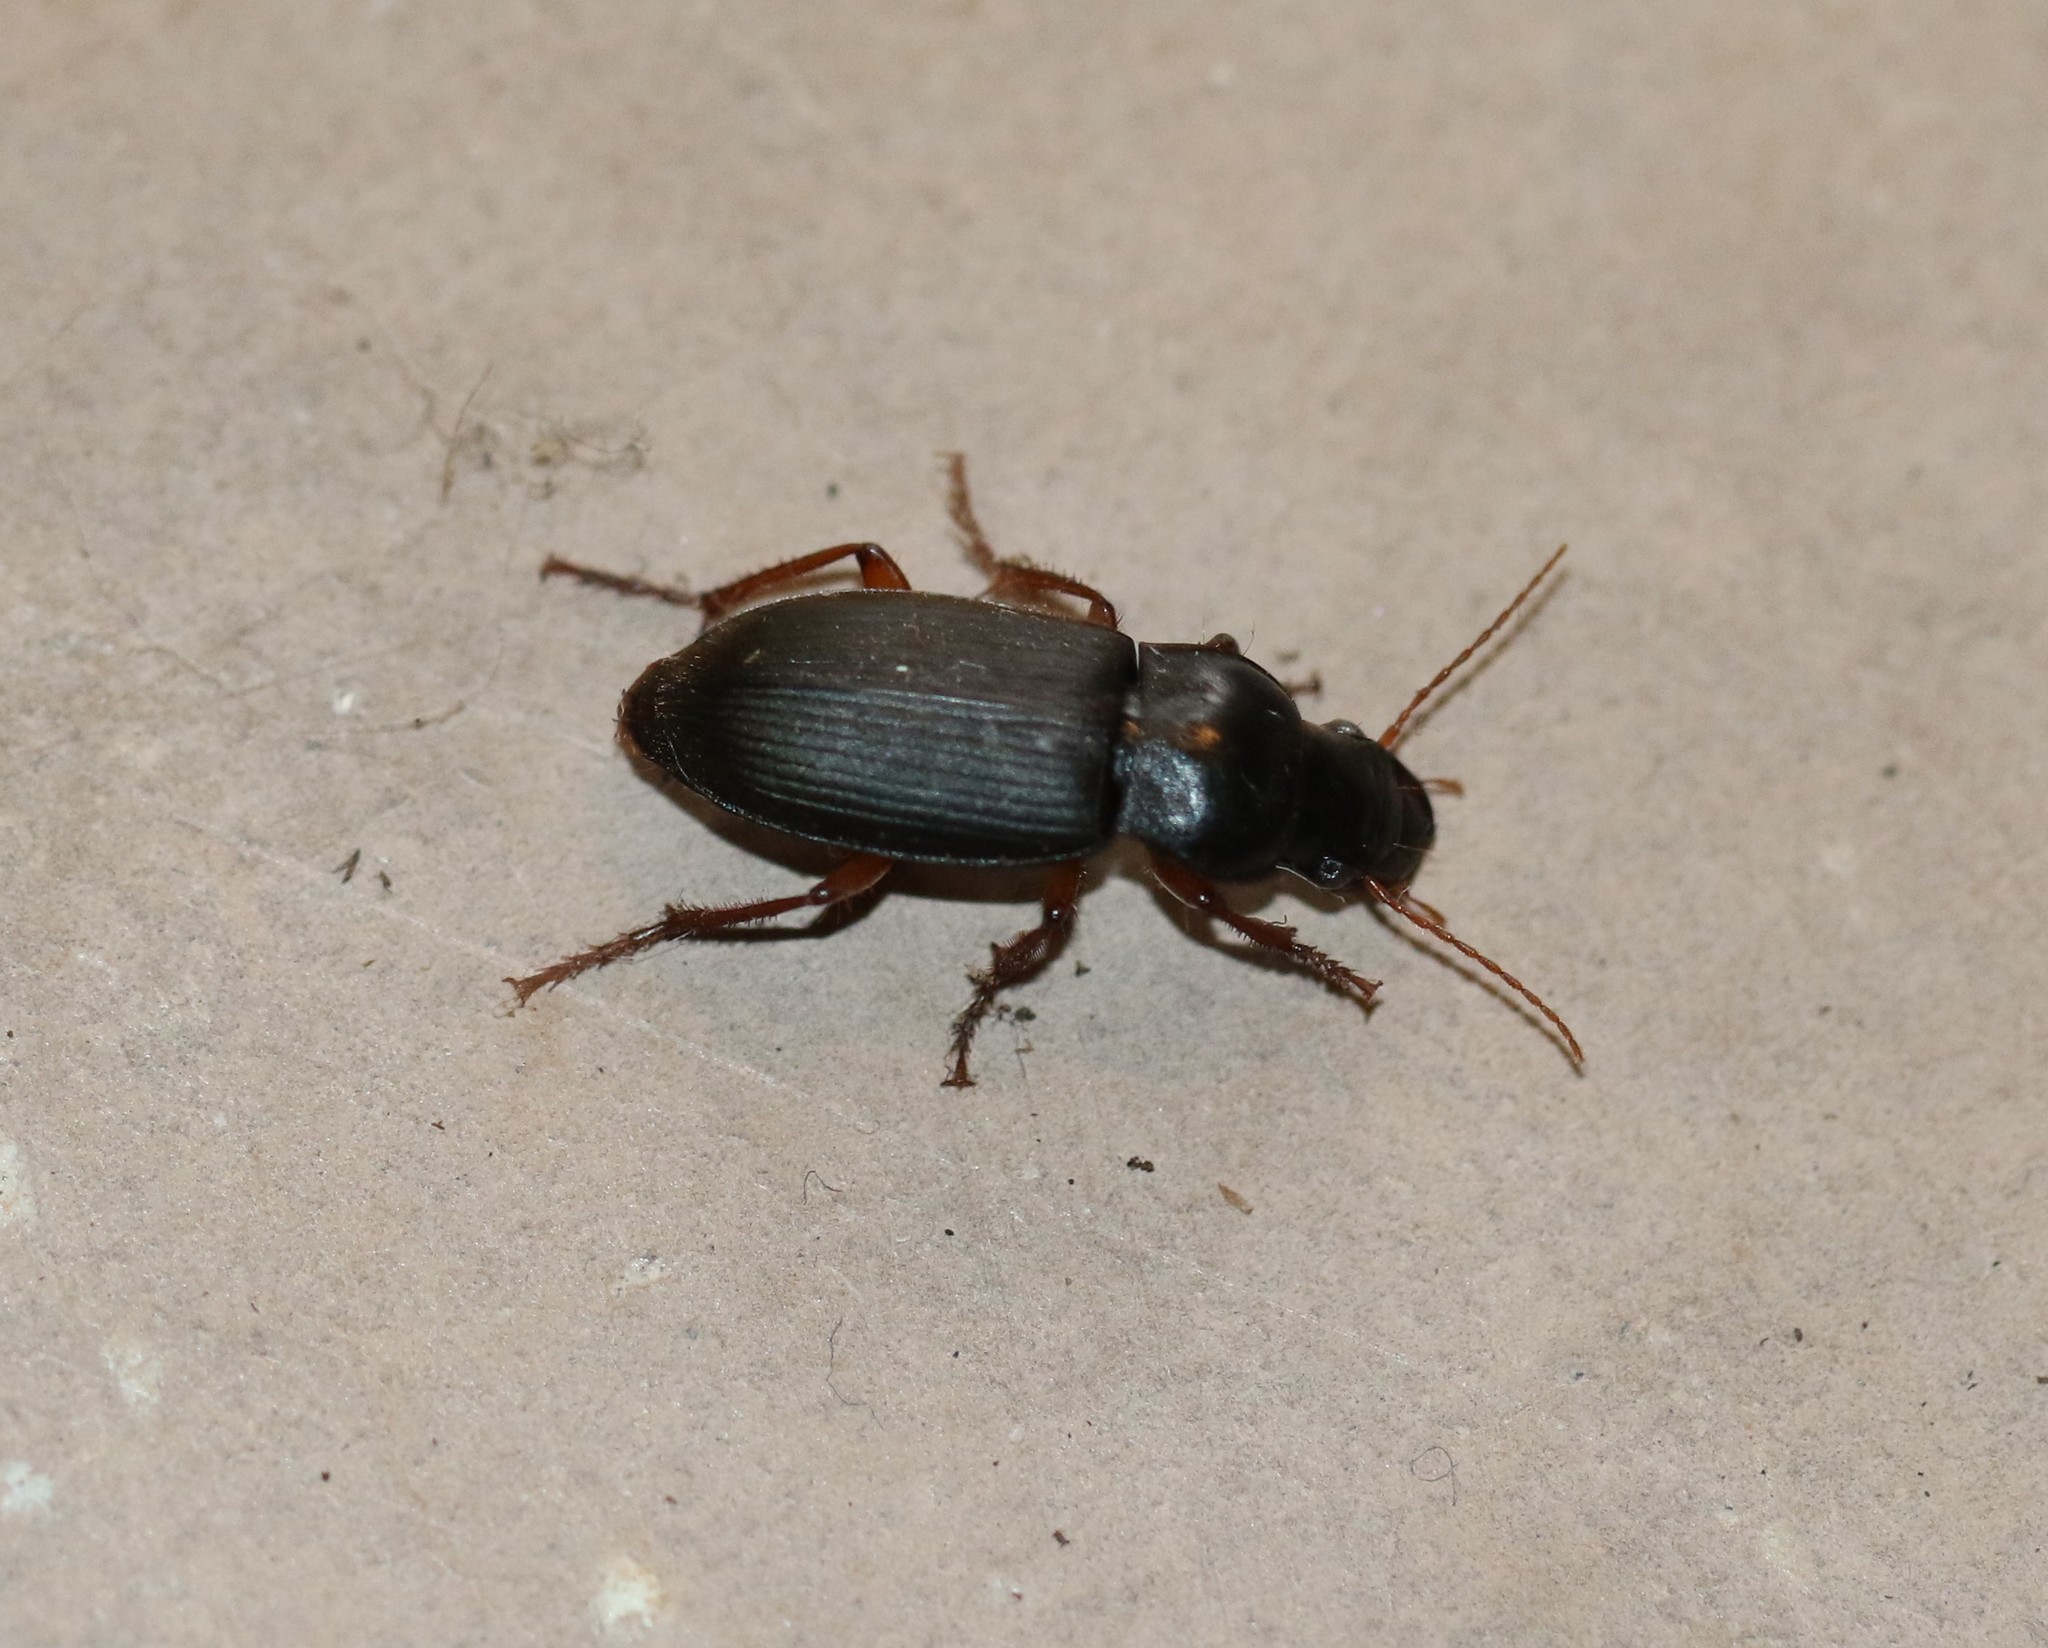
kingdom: Animalia
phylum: Arthropoda
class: Insecta
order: Coleoptera
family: Carabidae
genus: Harpalus
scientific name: Harpalus rufipes
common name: Strawberry harp ground beetle
